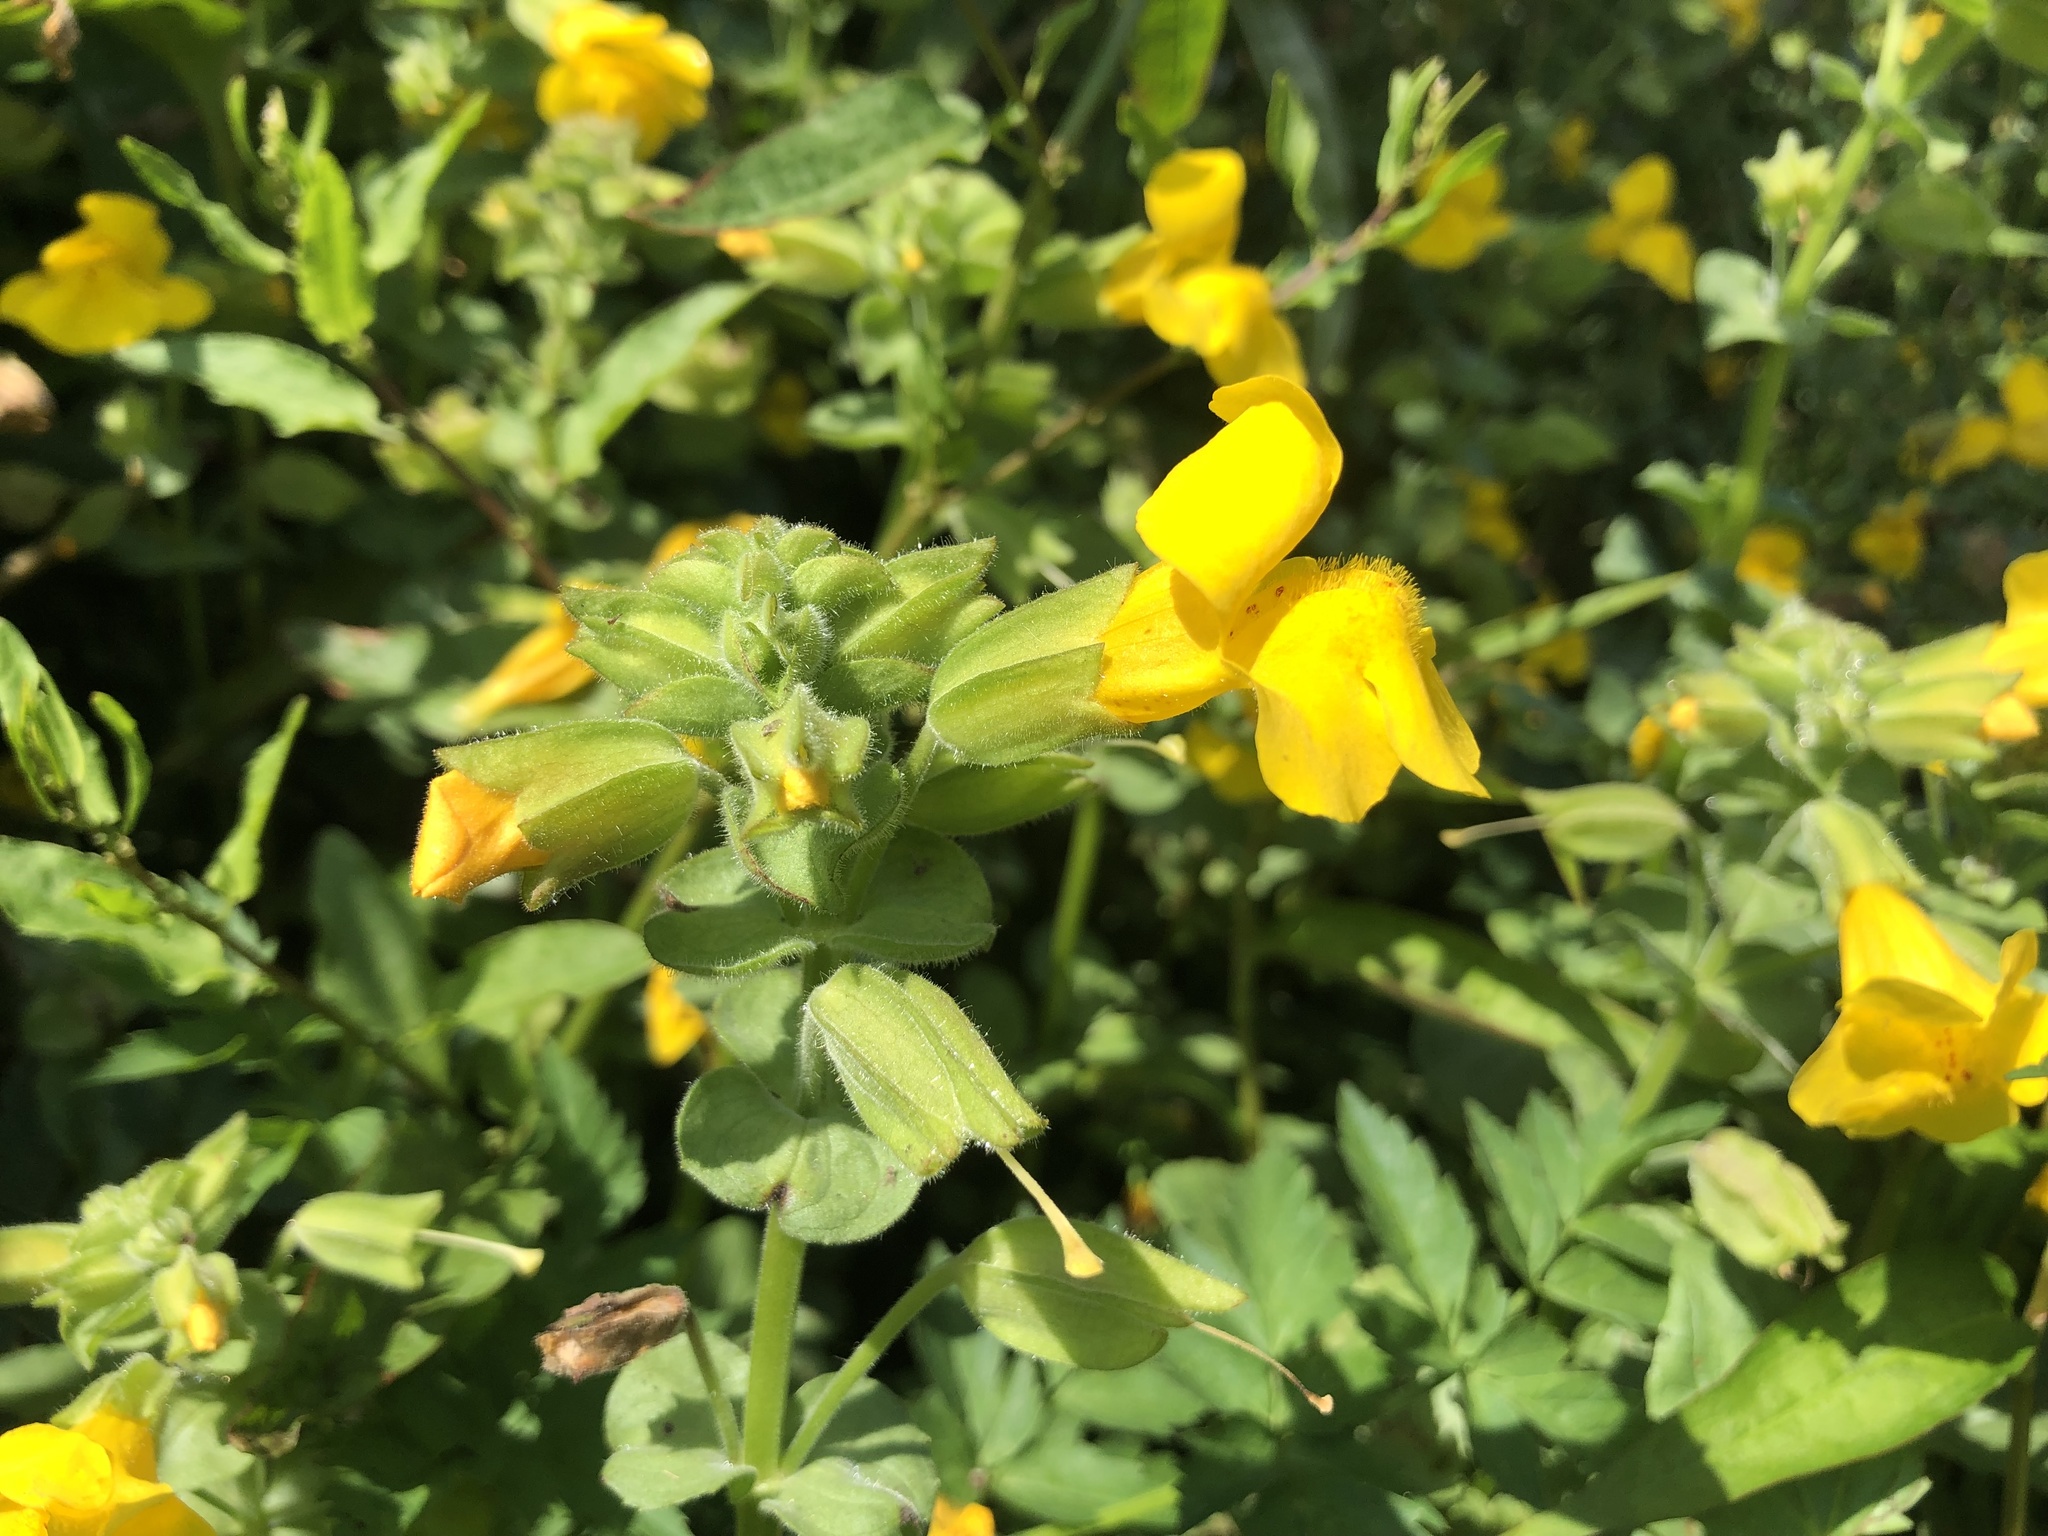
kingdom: Plantae
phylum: Tracheophyta
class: Magnoliopsida
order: Lamiales
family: Phrymaceae
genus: Erythranthe
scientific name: Erythranthe grandis
